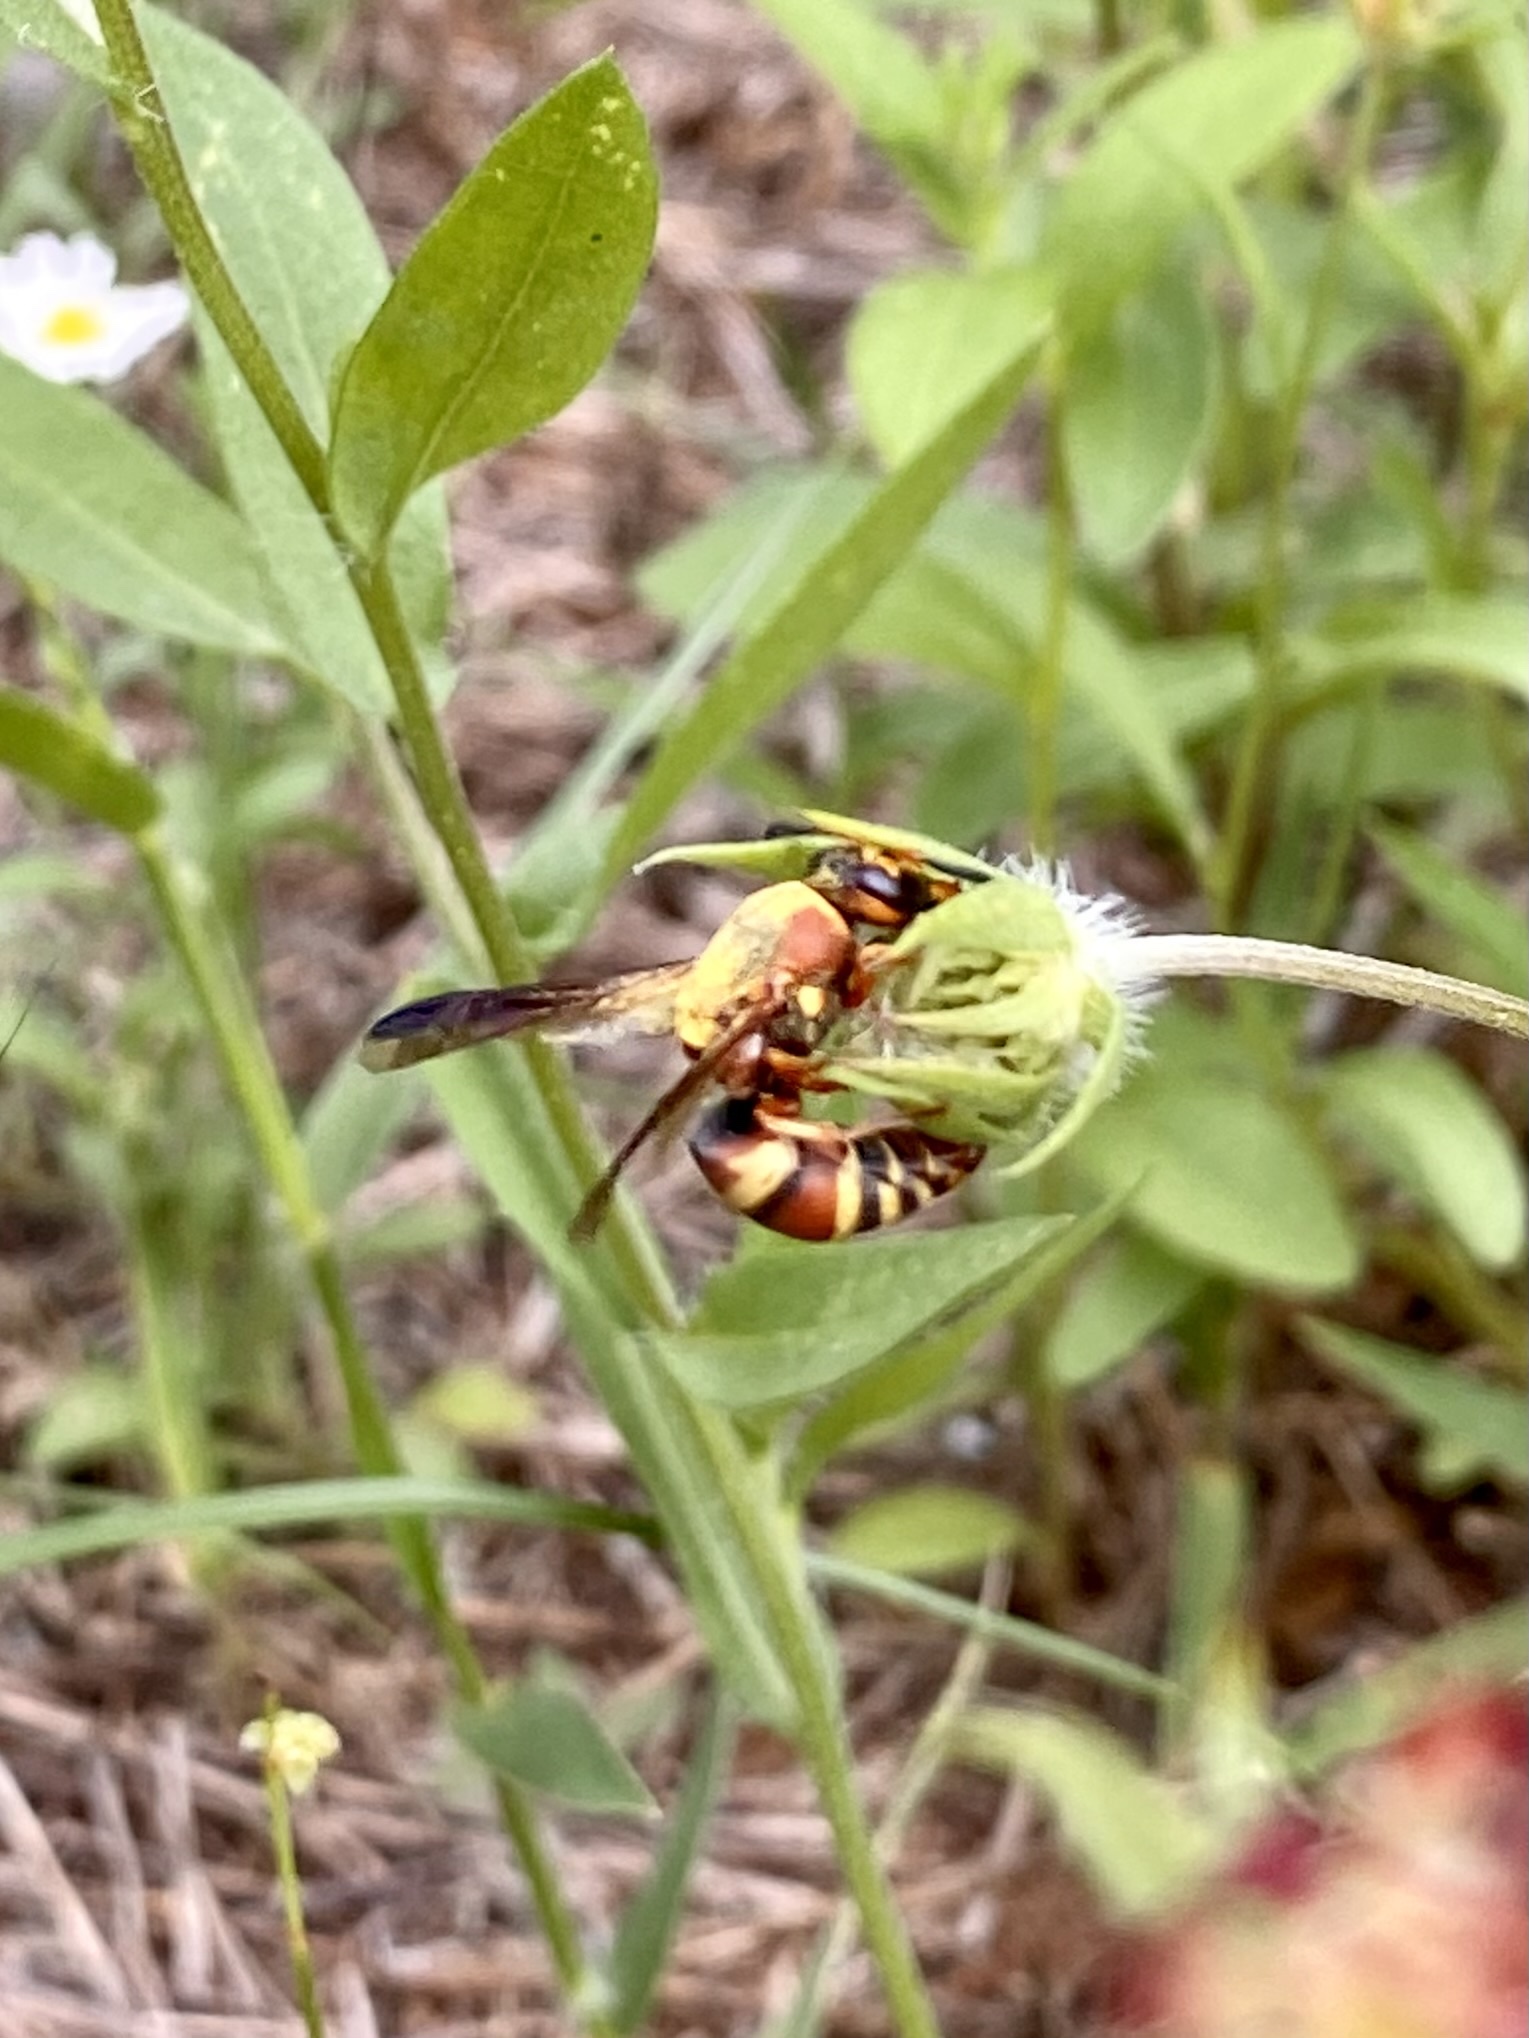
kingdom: Animalia
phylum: Arthropoda
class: Insecta
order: Hymenoptera
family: Eumenidae
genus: Euodynerus
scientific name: Euodynerus
